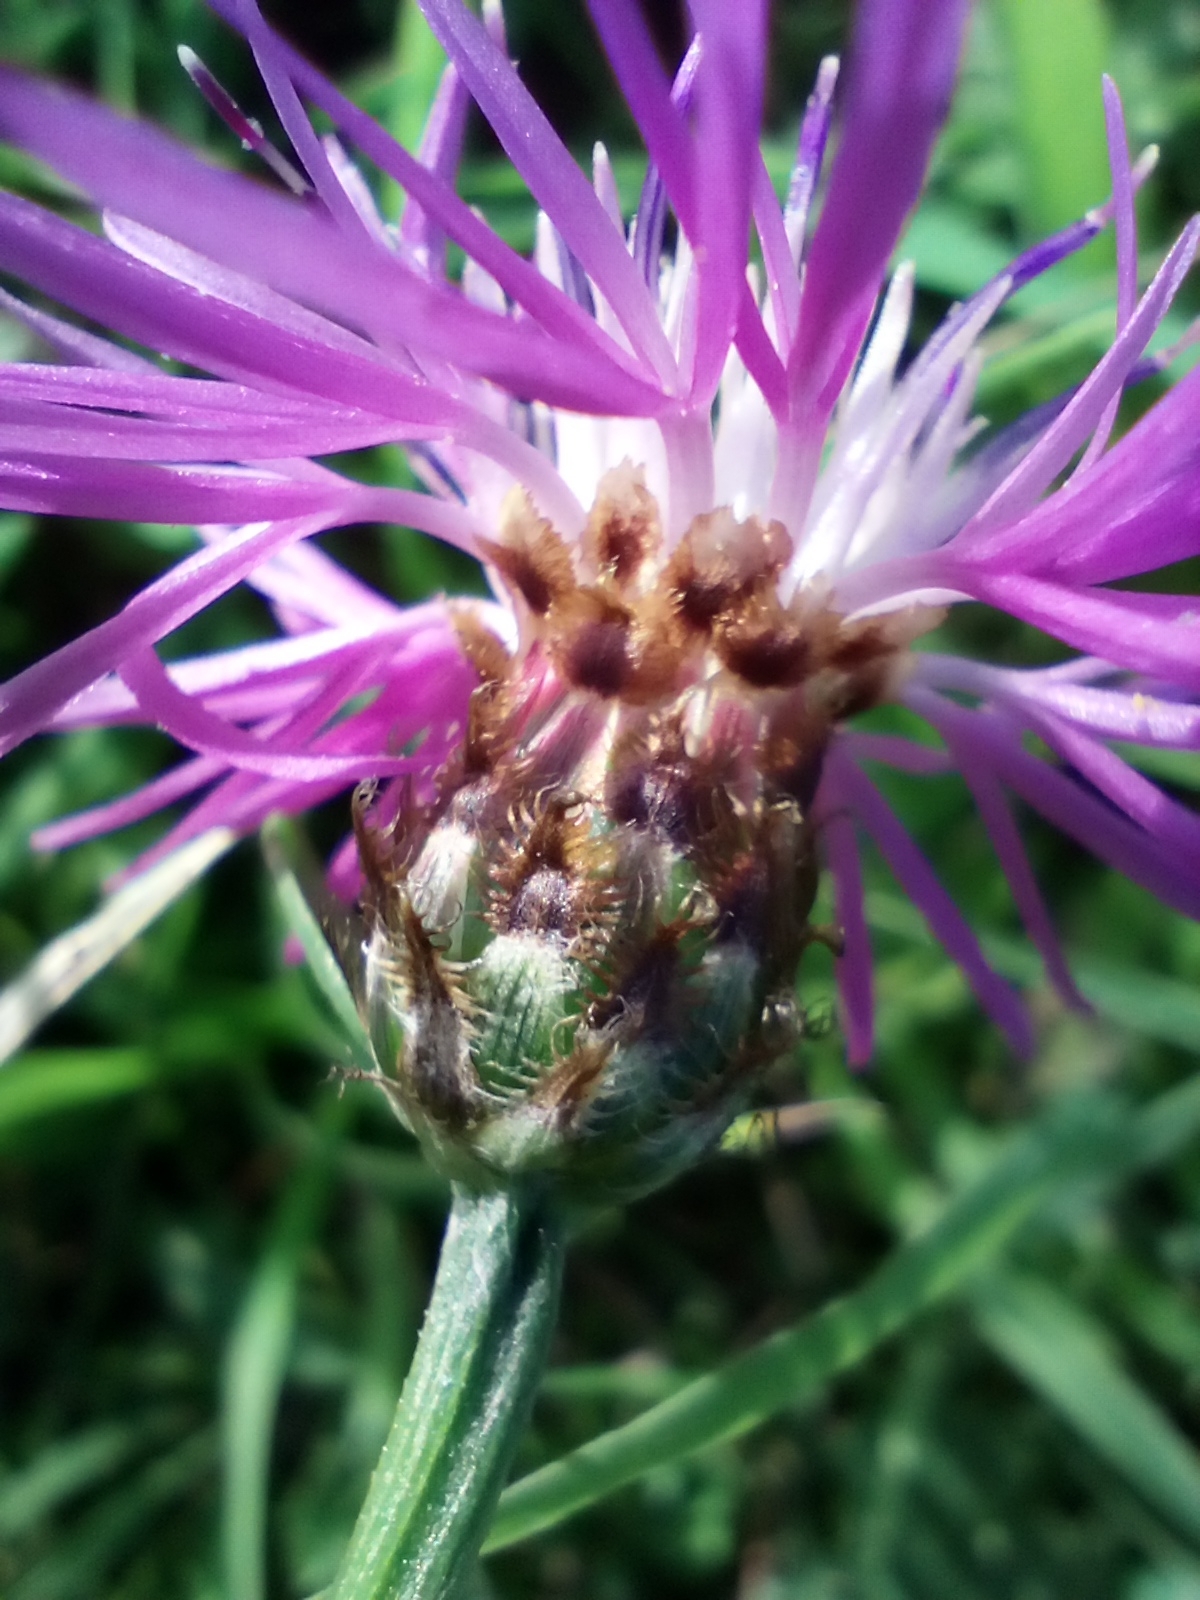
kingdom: Plantae
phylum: Tracheophyta
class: Magnoliopsida
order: Asterales
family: Asteraceae
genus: Centaurea
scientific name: Centaurea fleischeri
